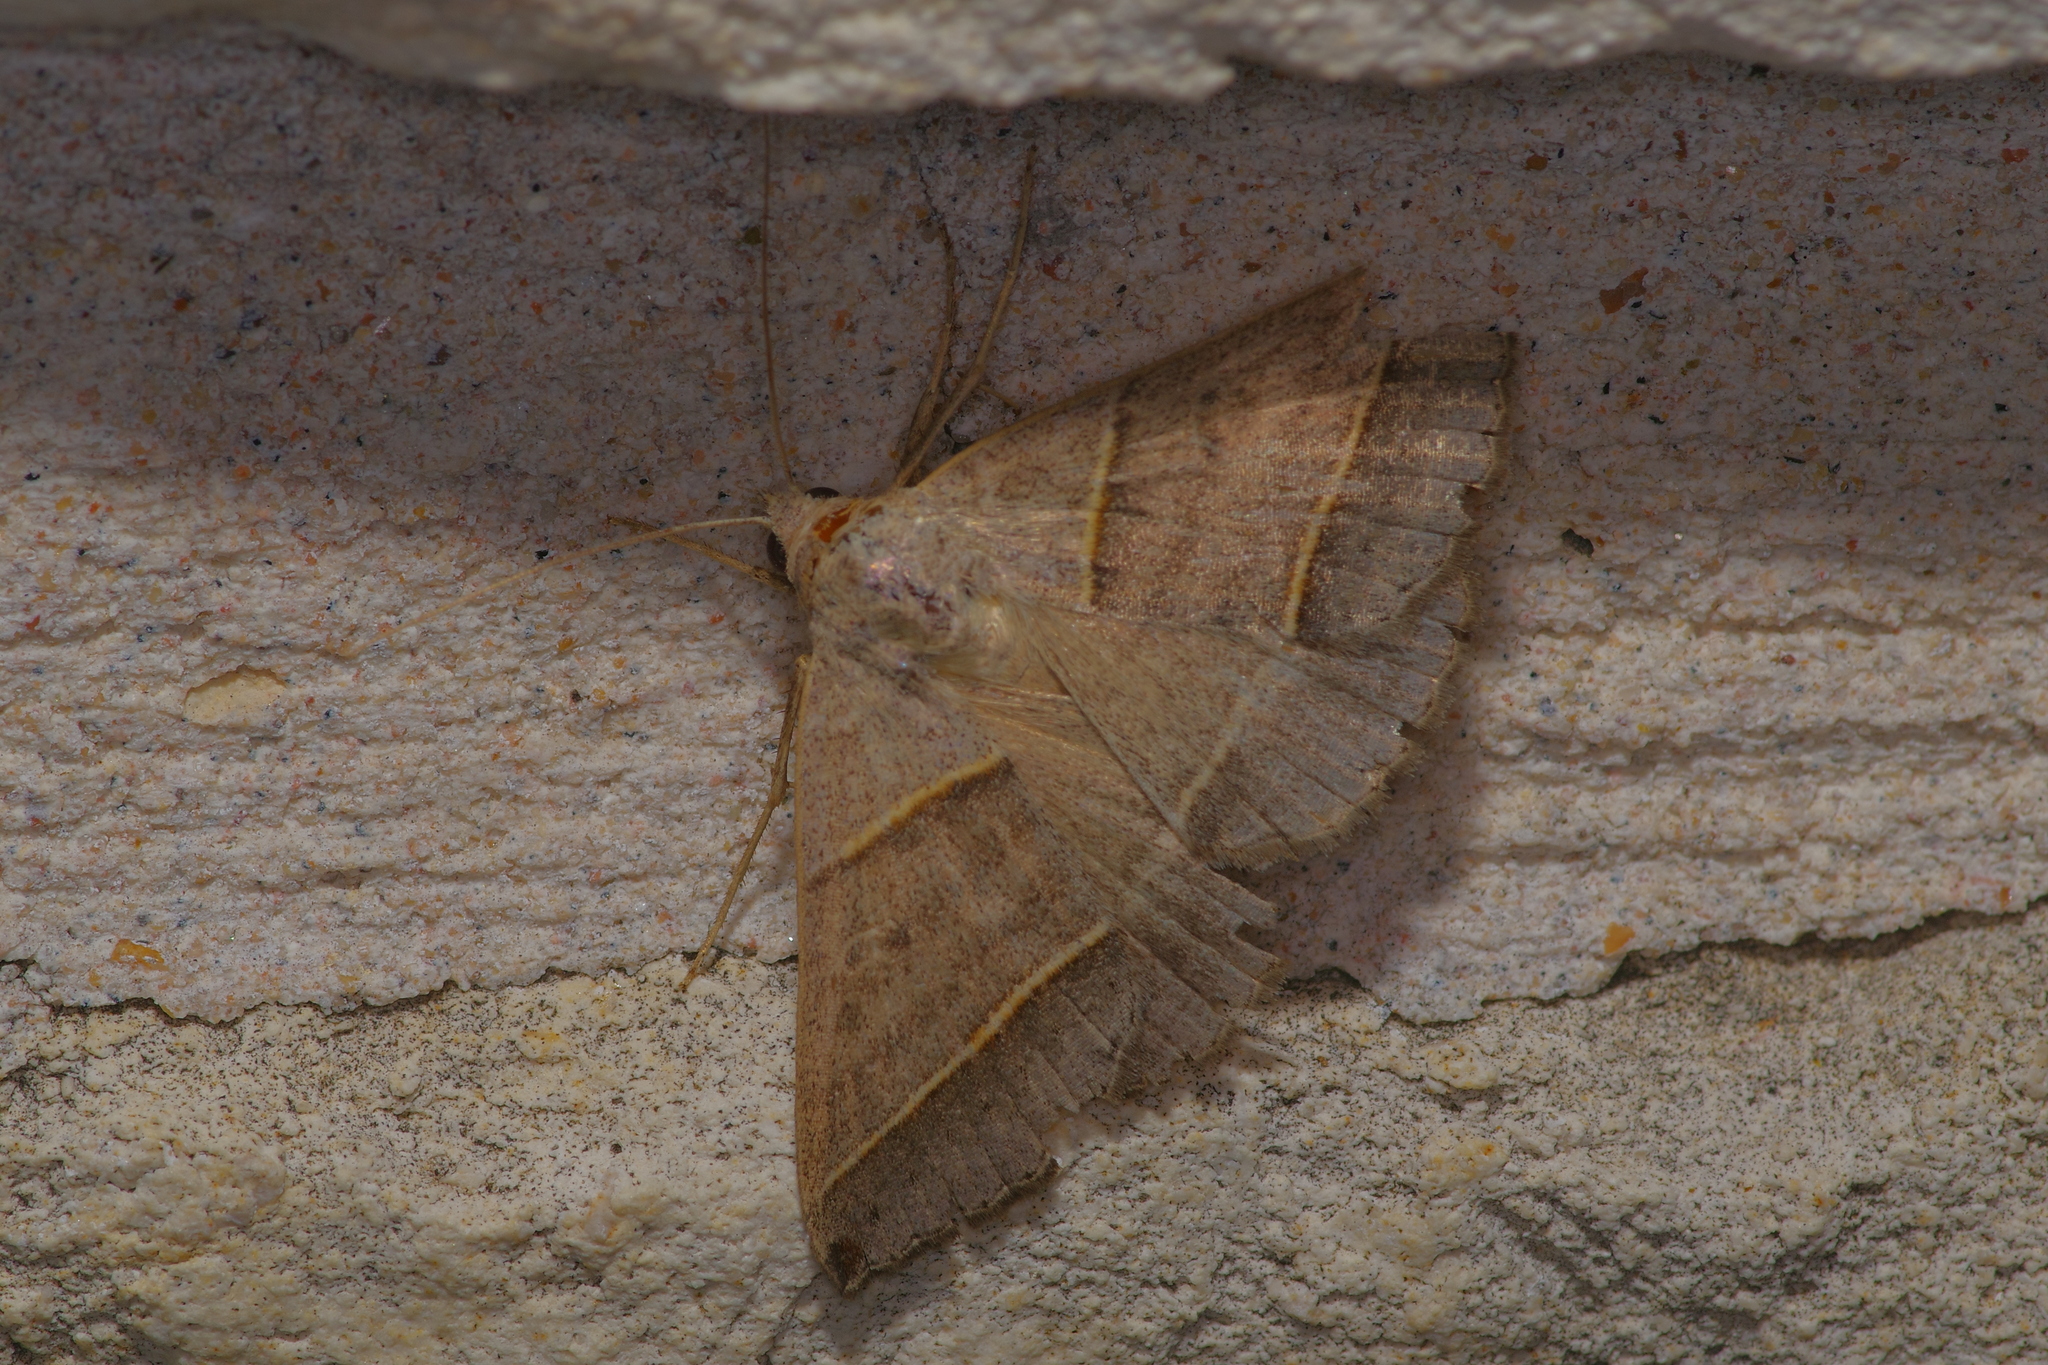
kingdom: Animalia
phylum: Arthropoda
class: Insecta
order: Lepidoptera
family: Erebidae
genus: Ptichodis
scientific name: Ptichodis vinculum
